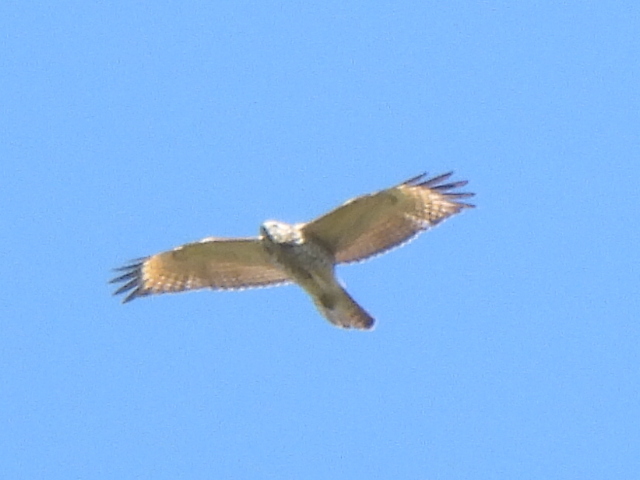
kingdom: Animalia
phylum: Chordata
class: Aves
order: Accipitriformes
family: Accipitridae
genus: Buteo
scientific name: Buteo lineatus
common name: Red-shouldered hawk
